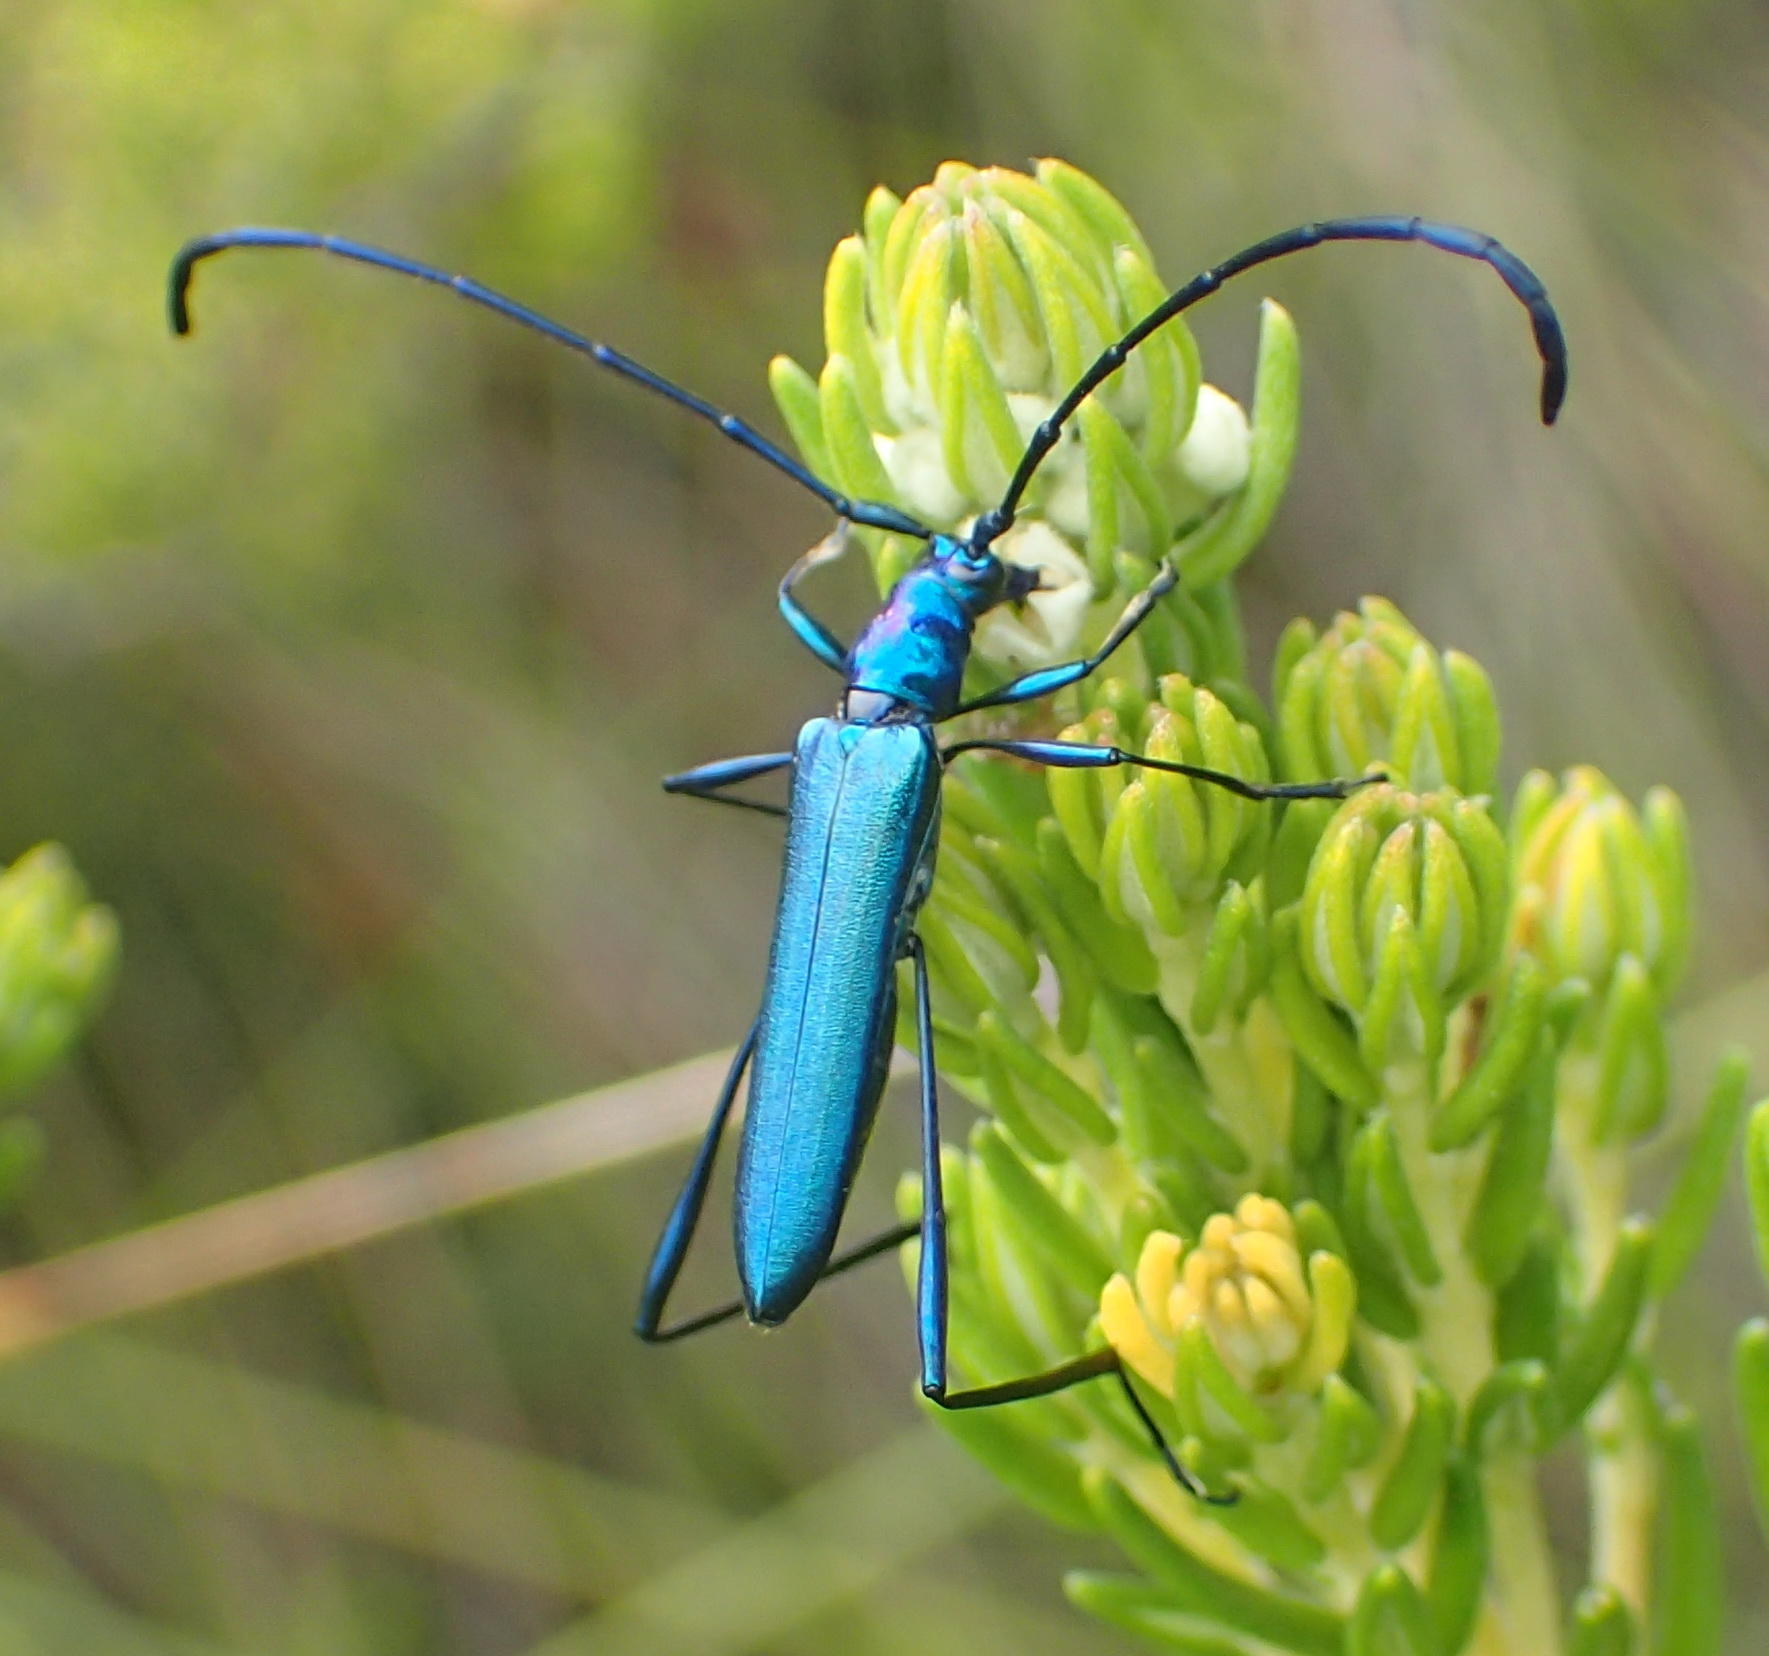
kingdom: Animalia
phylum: Arthropoda
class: Insecta
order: Coleoptera
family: Cerambycidae
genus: Promeces
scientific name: Promeces longipes
